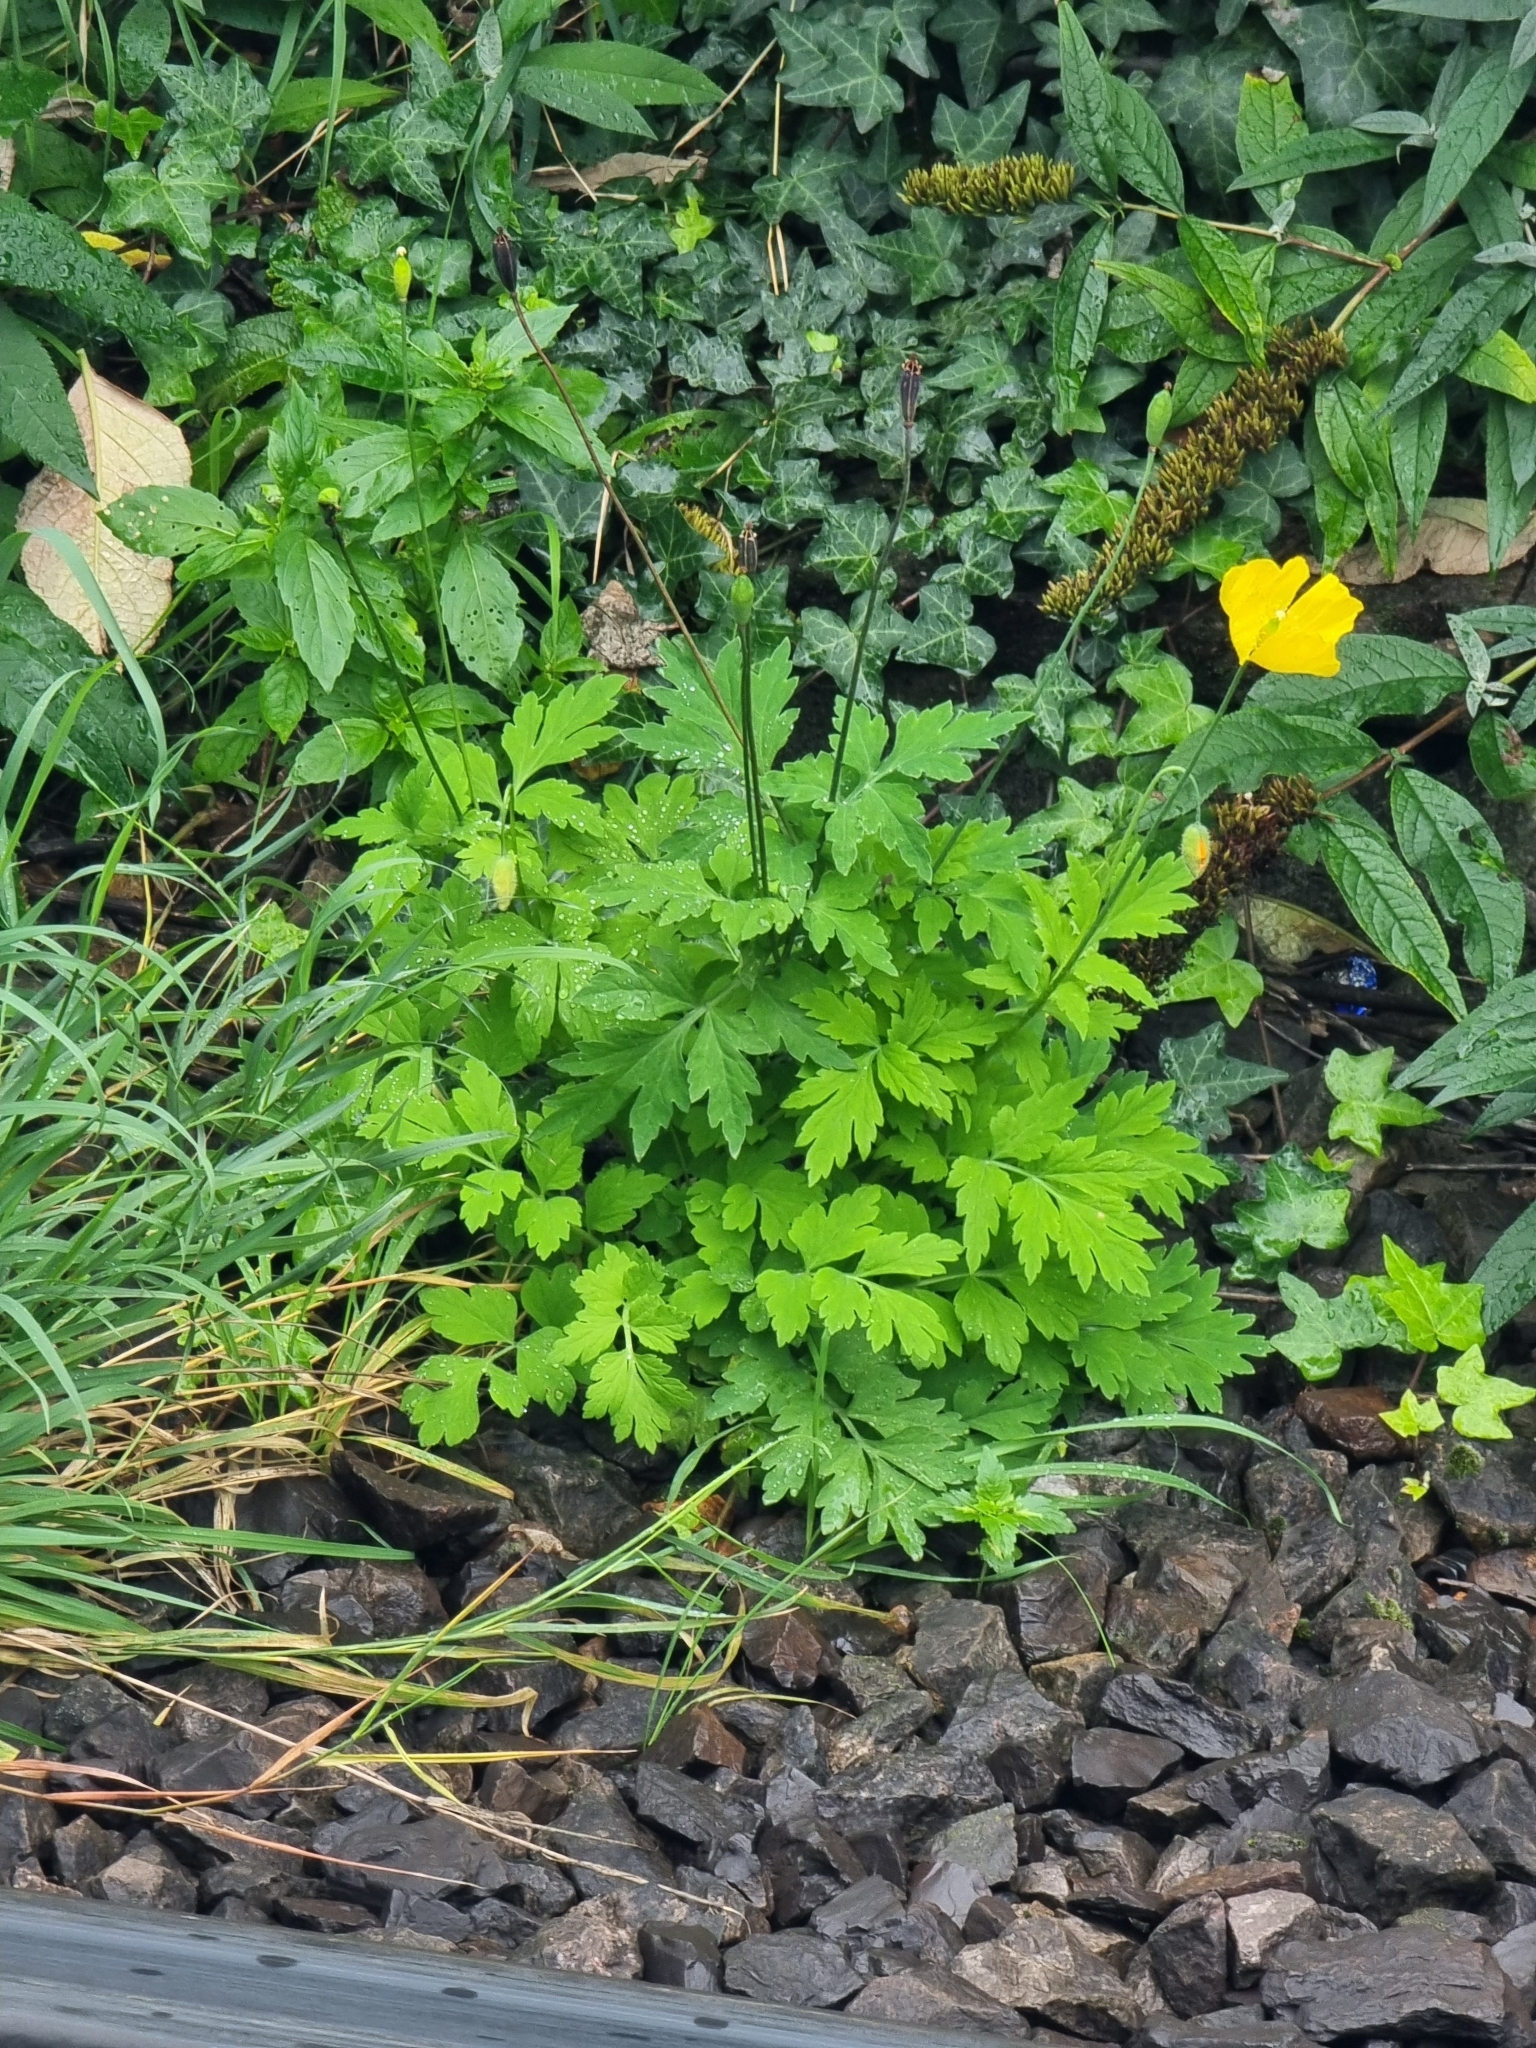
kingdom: Plantae
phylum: Tracheophyta
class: Magnoliopsida
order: Ranunculales
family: Papaveraceae
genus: Papaver
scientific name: Papaver cambricum
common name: Poppy
